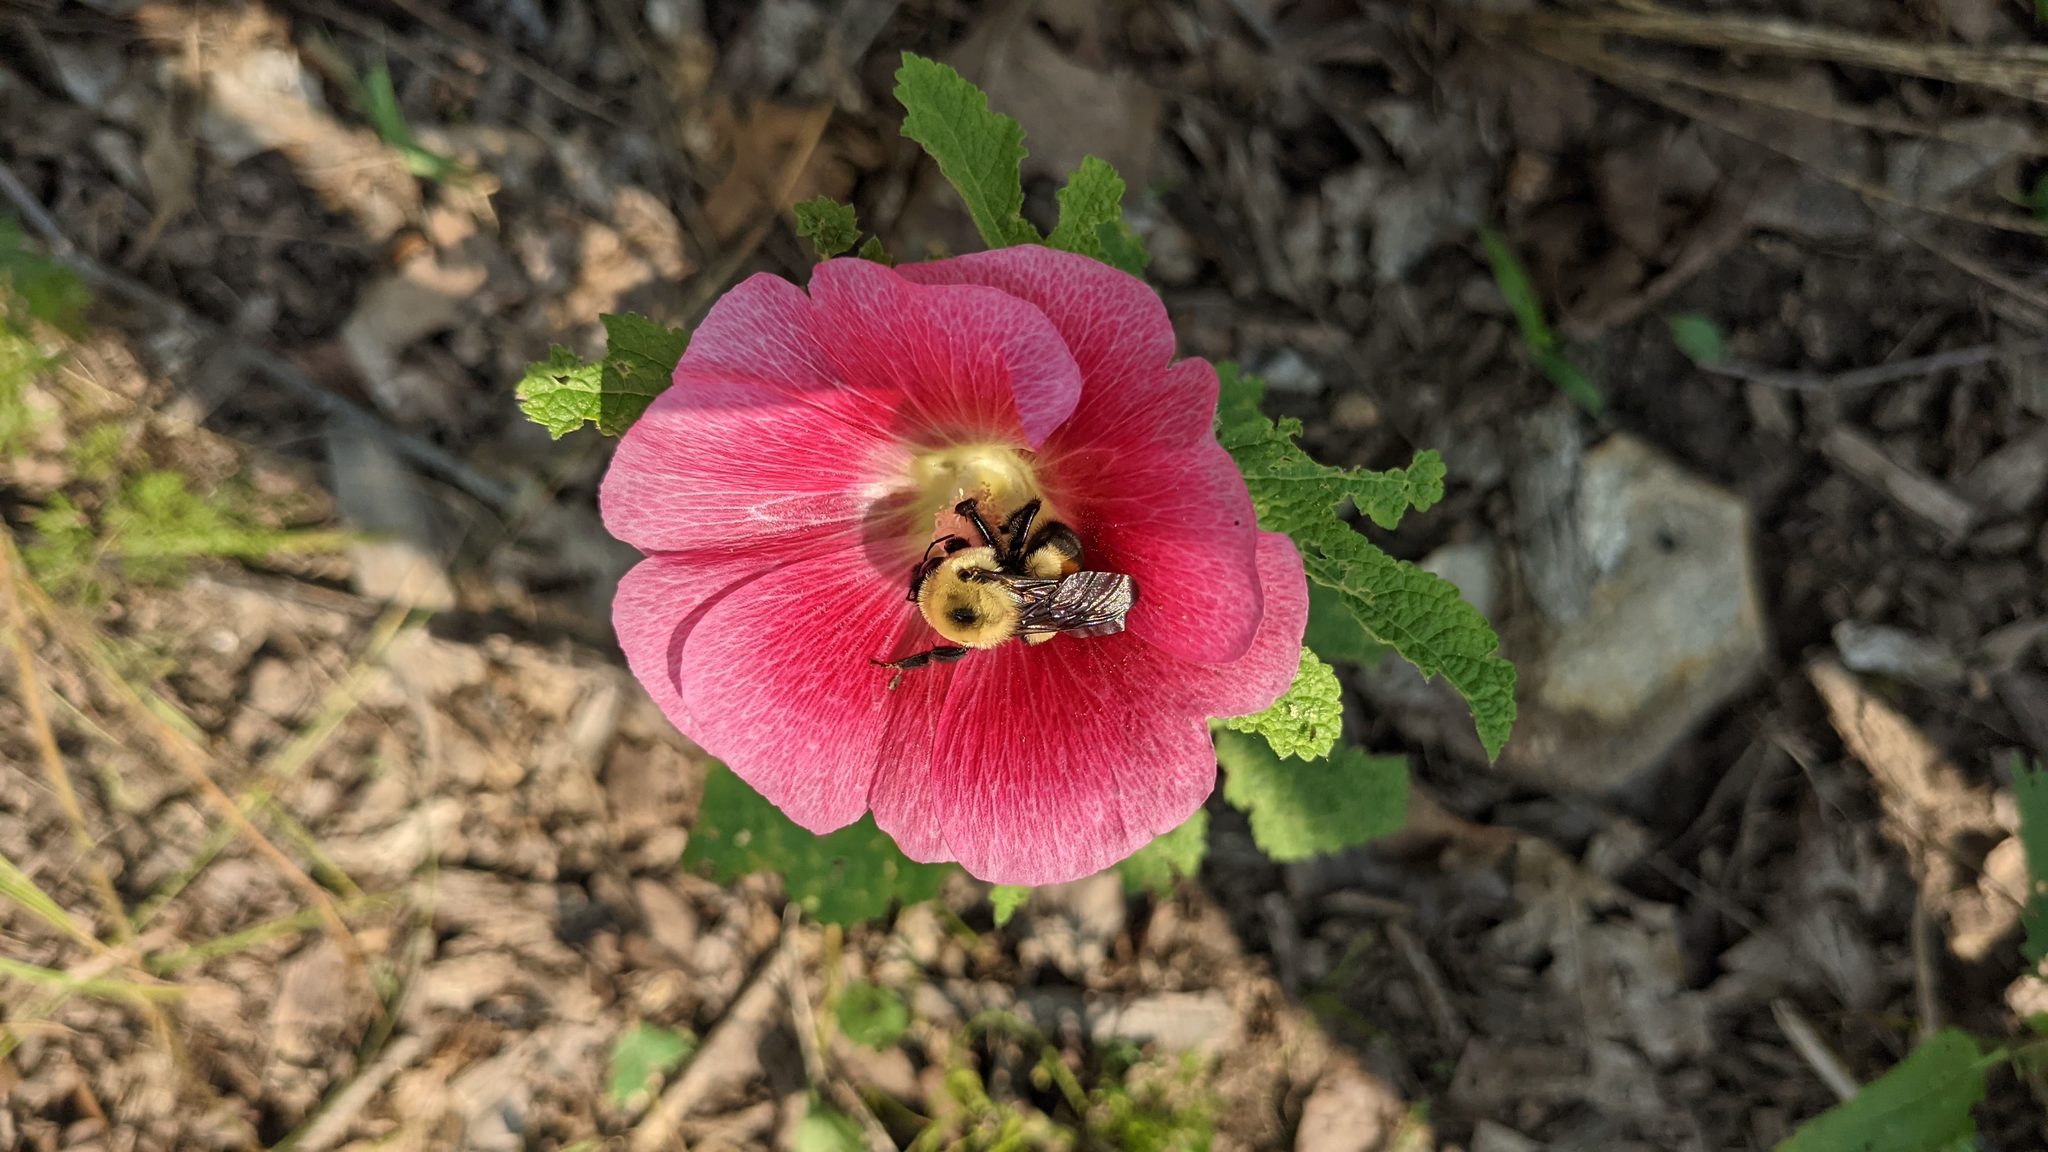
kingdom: Animalia
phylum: Arthropoda
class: Insecta
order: Hymenoptera
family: Apidae
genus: Bombus
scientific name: Bombus griseocollis
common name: Brown-belted bumble bee
